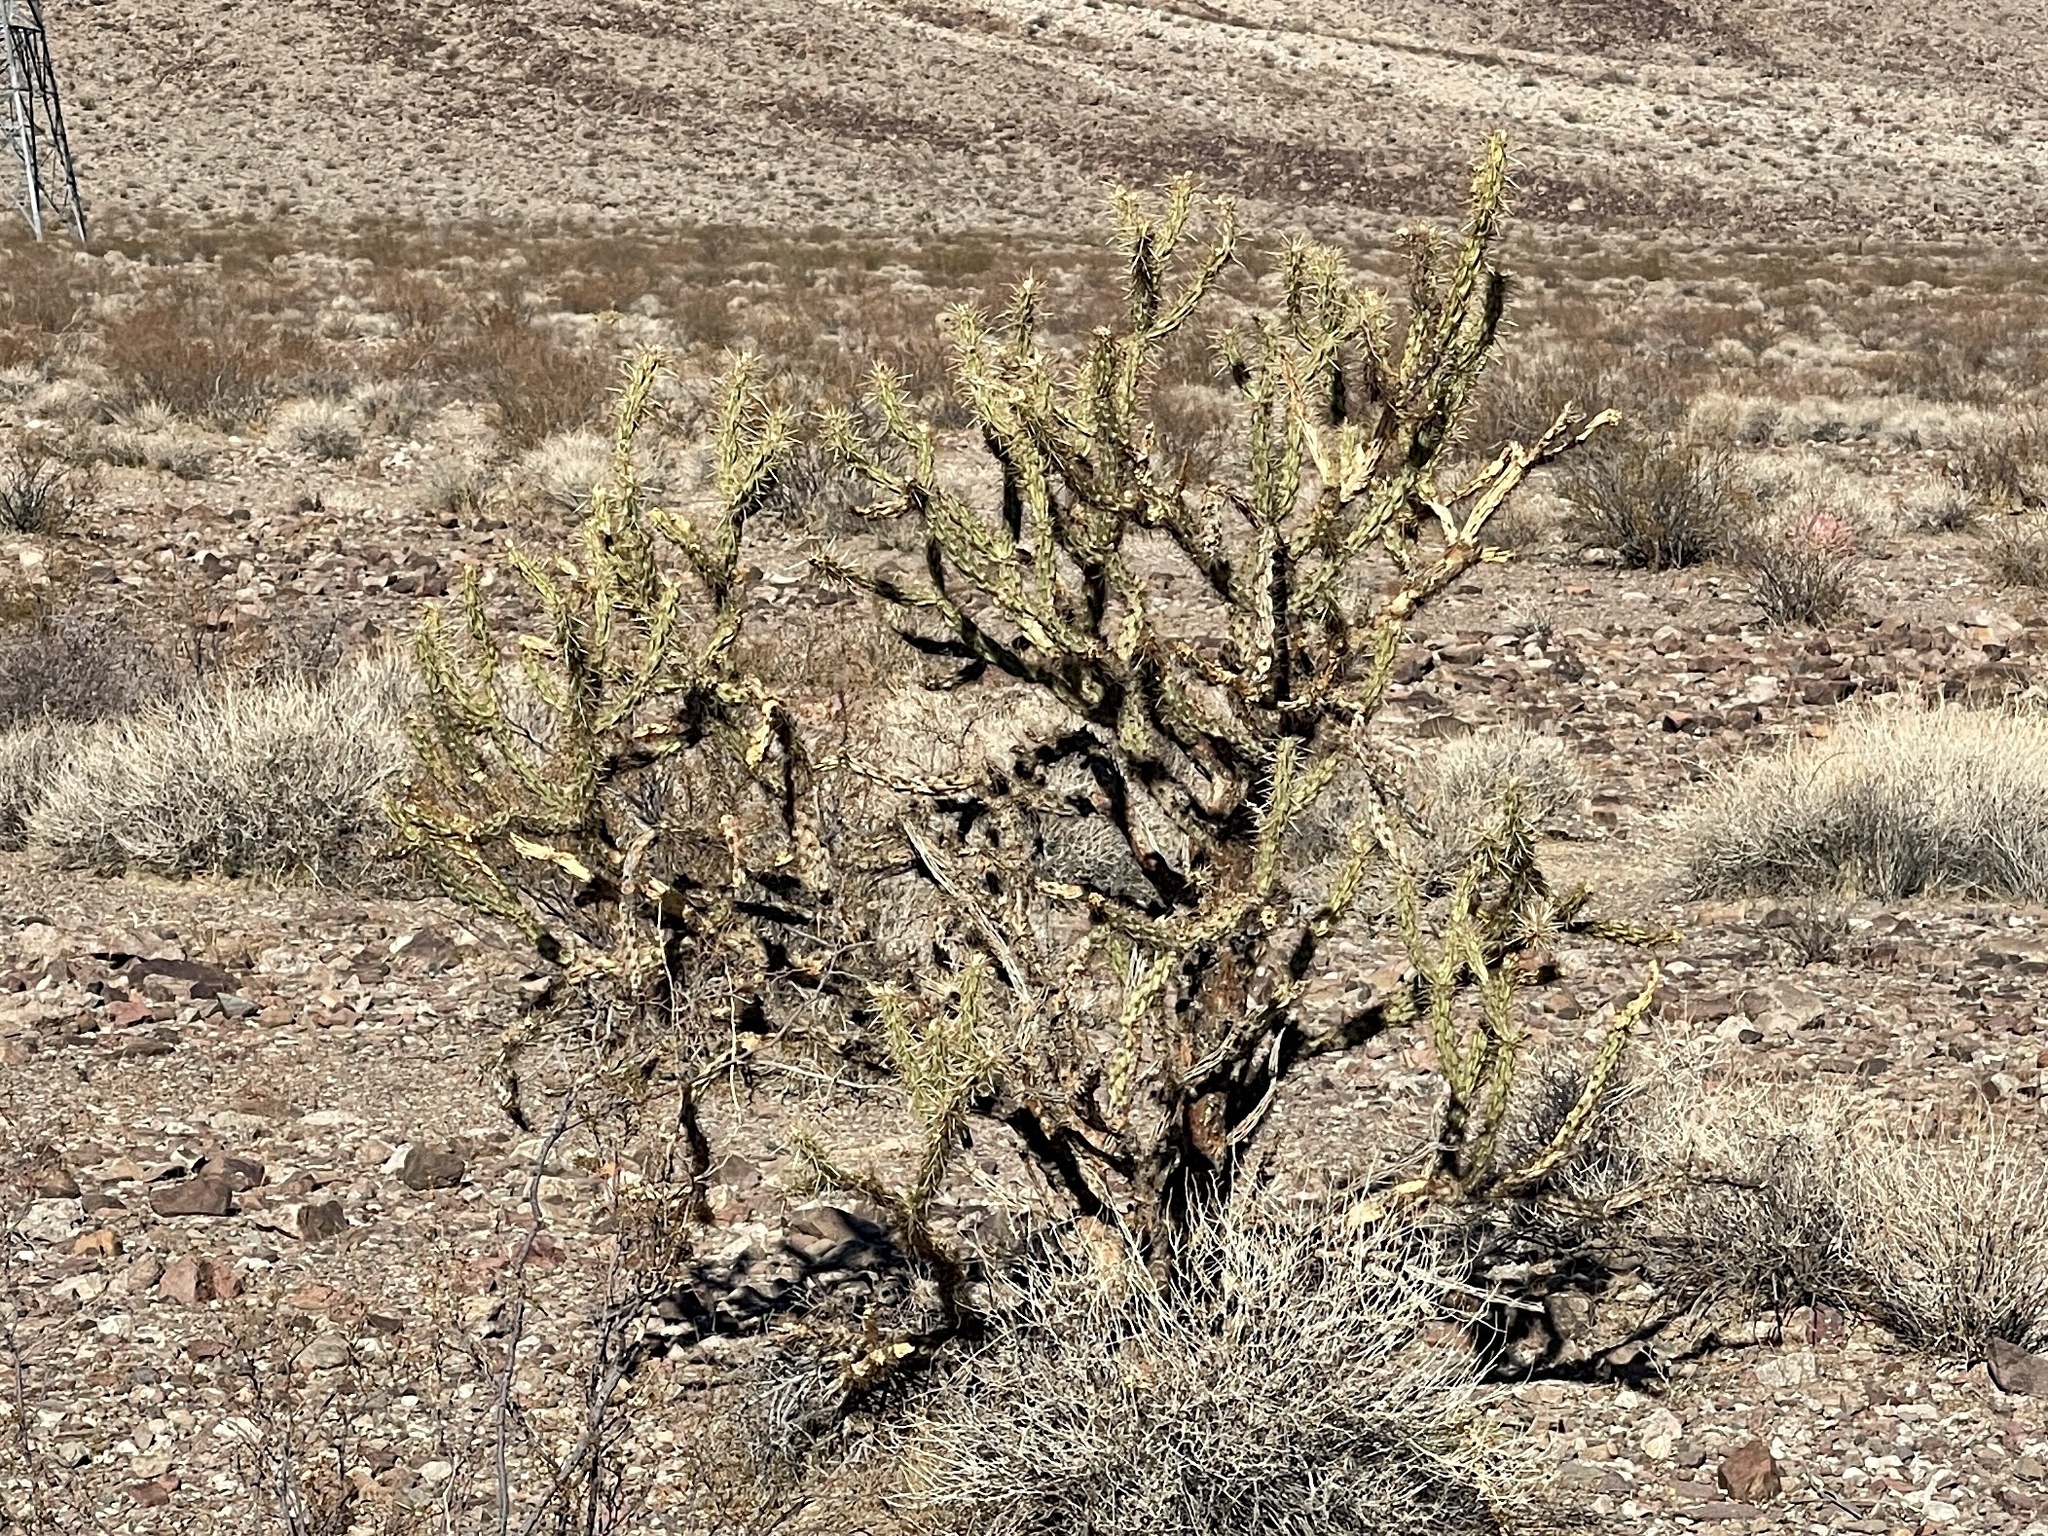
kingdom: Plantae
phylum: Tracheophyta
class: Magnoliopsida
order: Caryophyllales
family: Cactaceae
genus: Cylindropuntia
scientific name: Cylindropuntia acanthocarpa
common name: Buckhorn cholla
